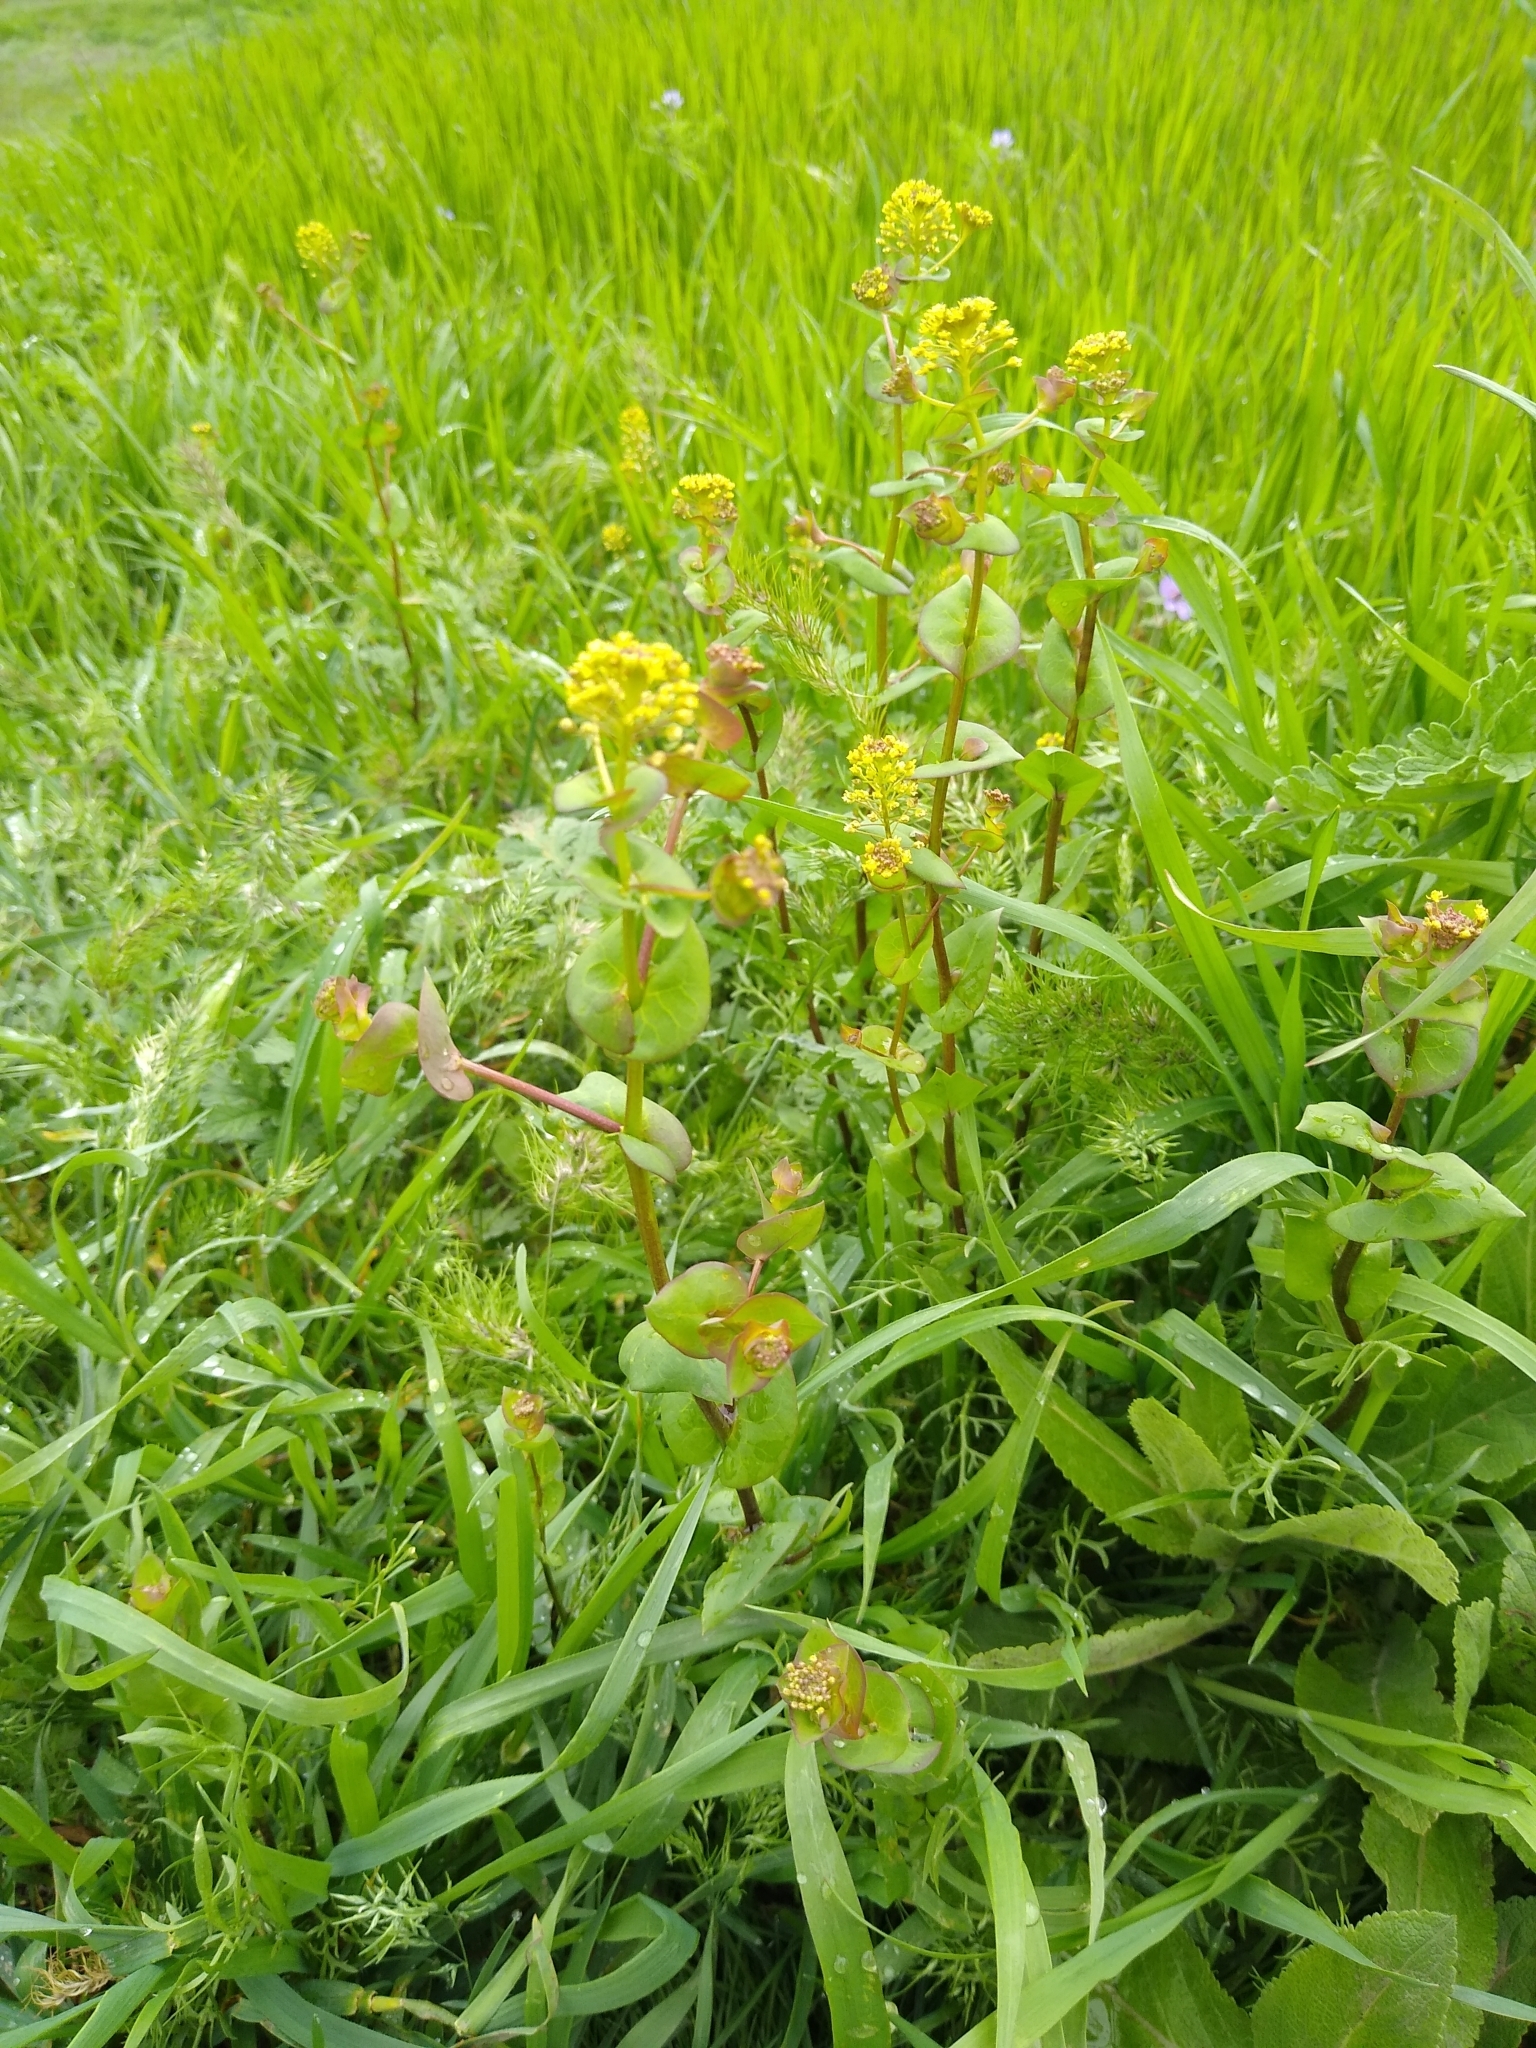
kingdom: Plantae
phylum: Tracheophyta
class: Magnoliopsida
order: Brassicales
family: Brassicaceae
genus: Lepidium
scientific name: Lepidium perfoliatum
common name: Perfoliate pepperwort
